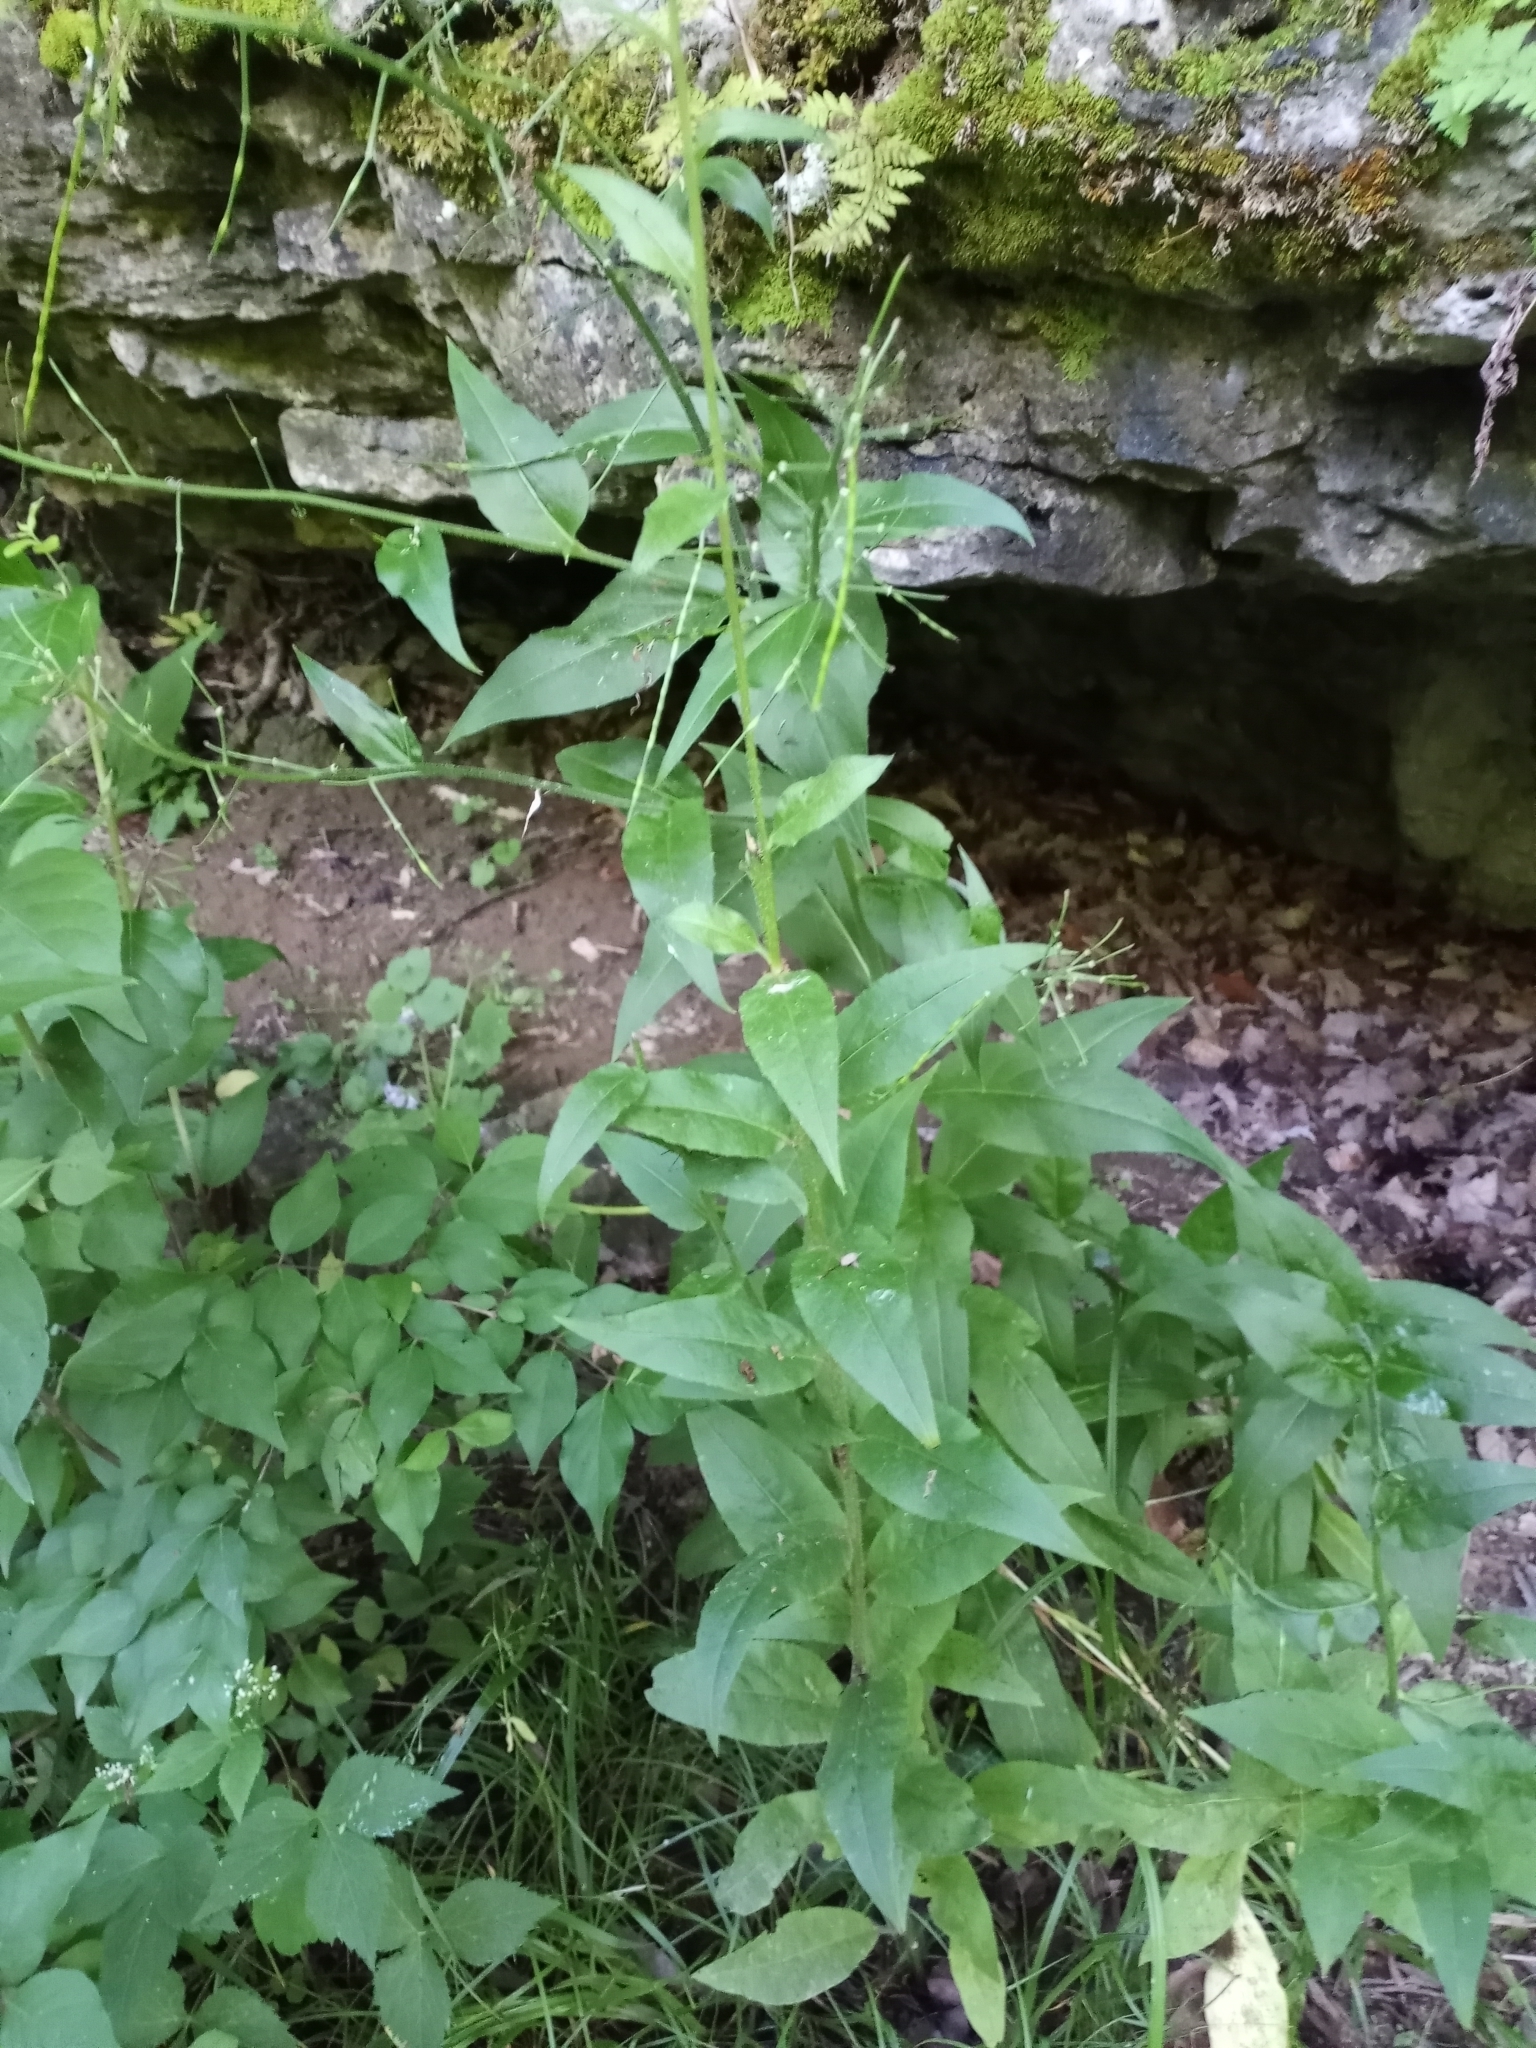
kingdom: Plantae
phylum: Tracheophyta
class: Magnoliopsida
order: Brassicales
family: Brassicaceae
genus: Hesperis
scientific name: Hesperis matronalis
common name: Dame's-violet
